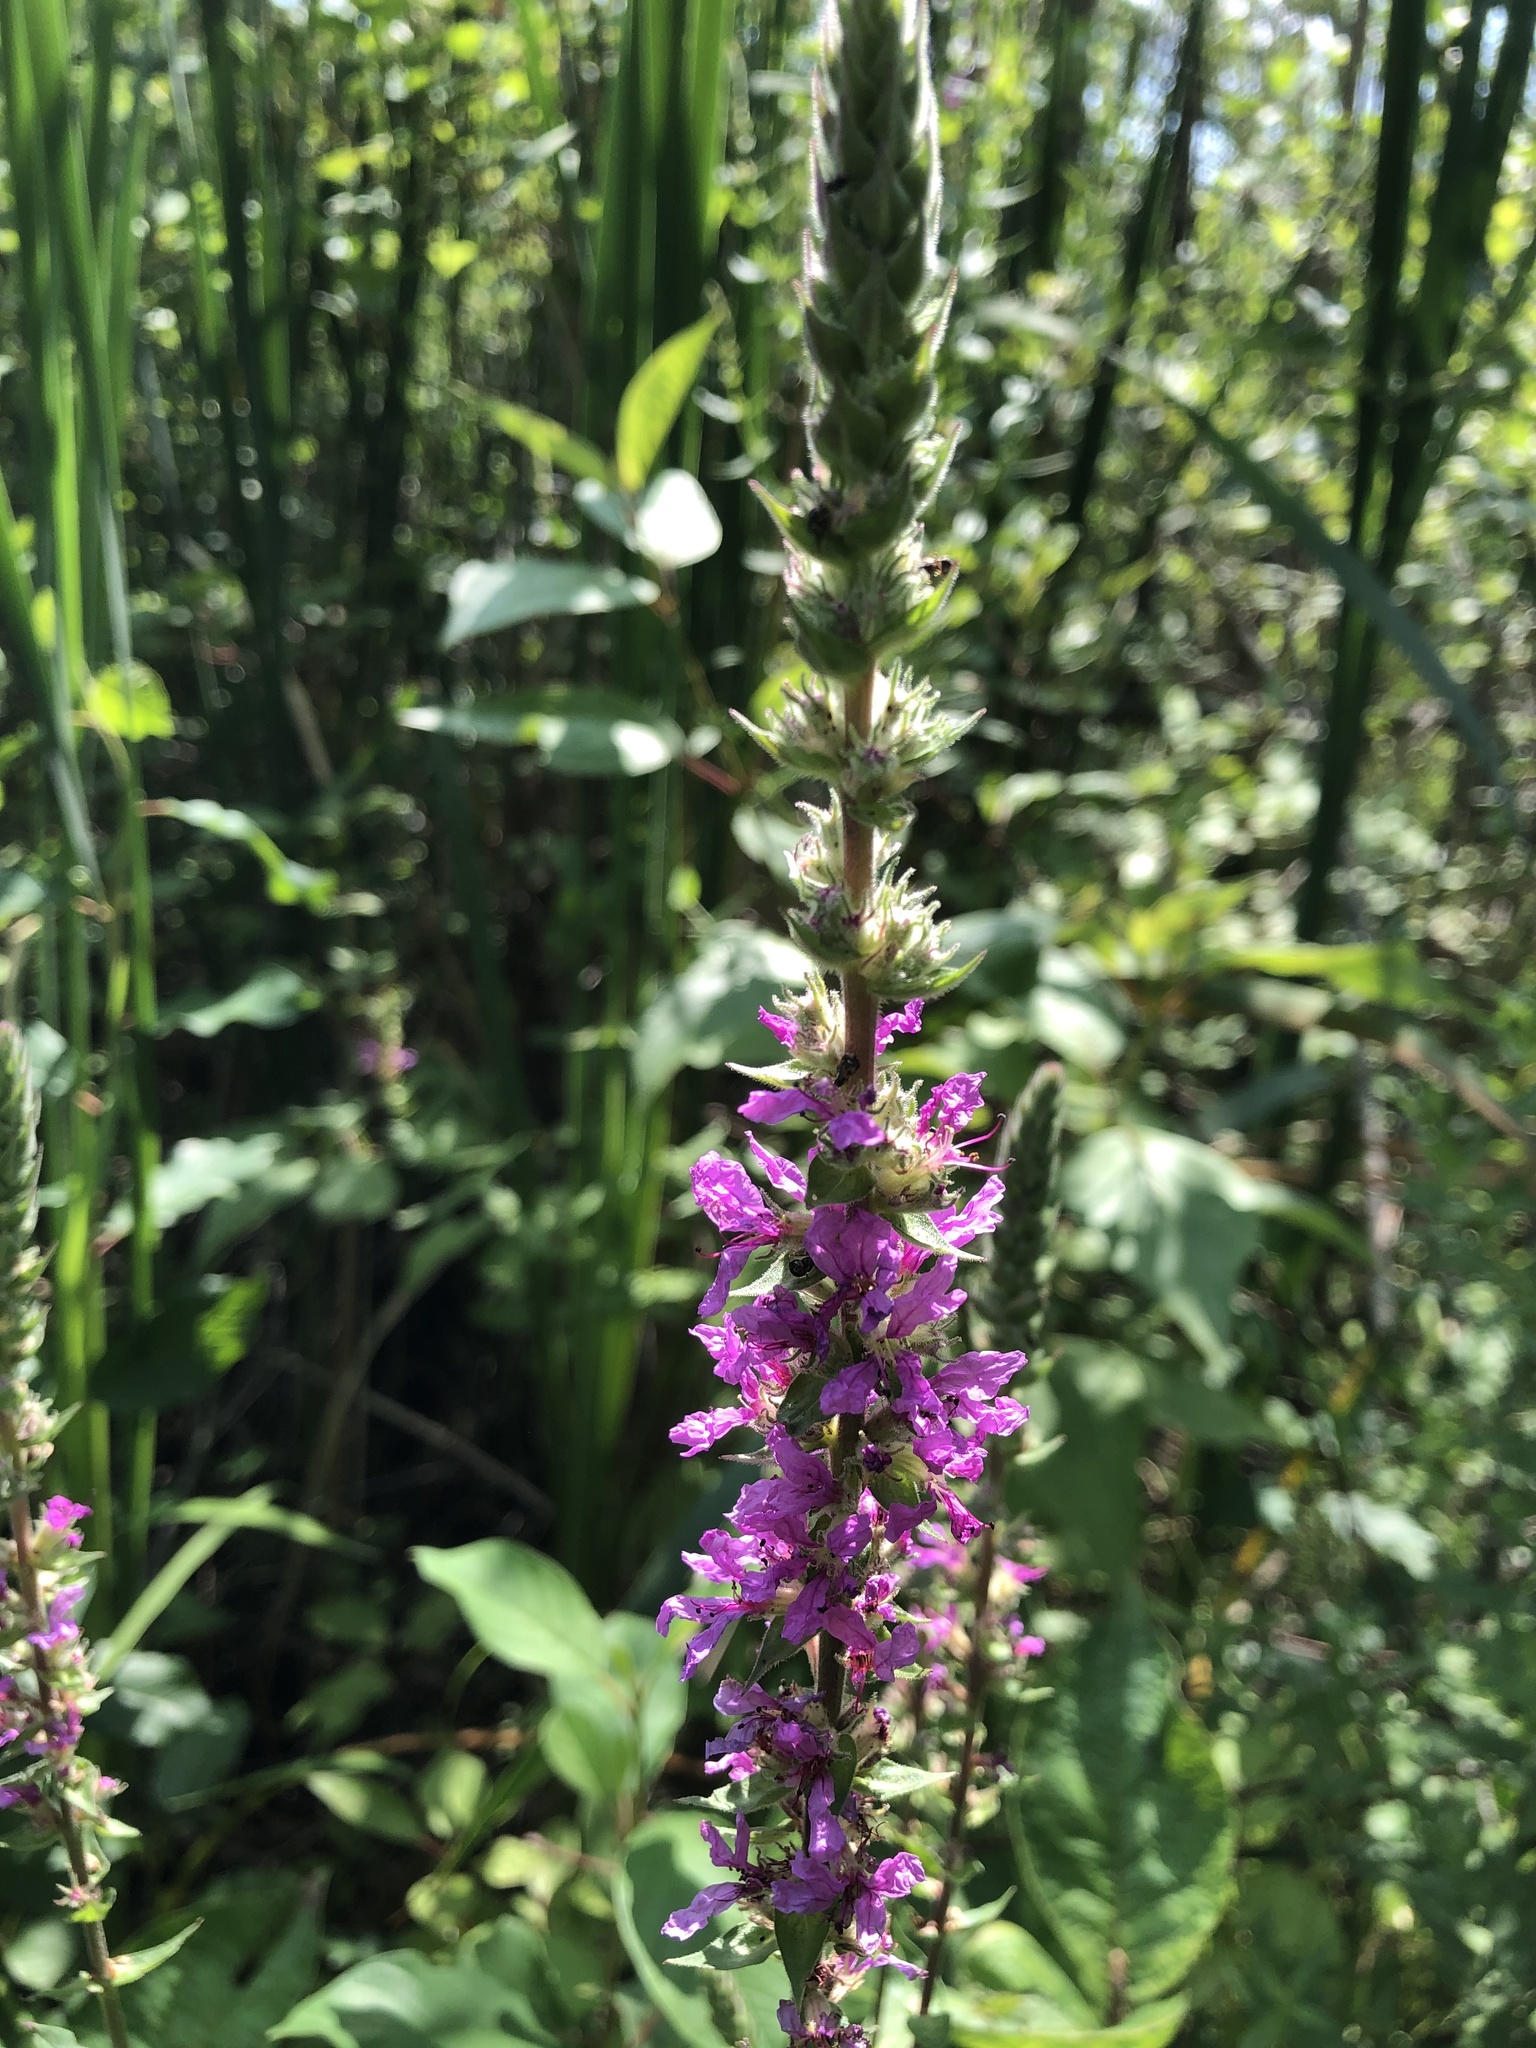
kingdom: Plantae
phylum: Tracheophyta
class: Magnoliopsida
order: Myrtales
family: Lythraceae
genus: Lythrum
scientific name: Lythrum salicaria
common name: Purple loosestrife
